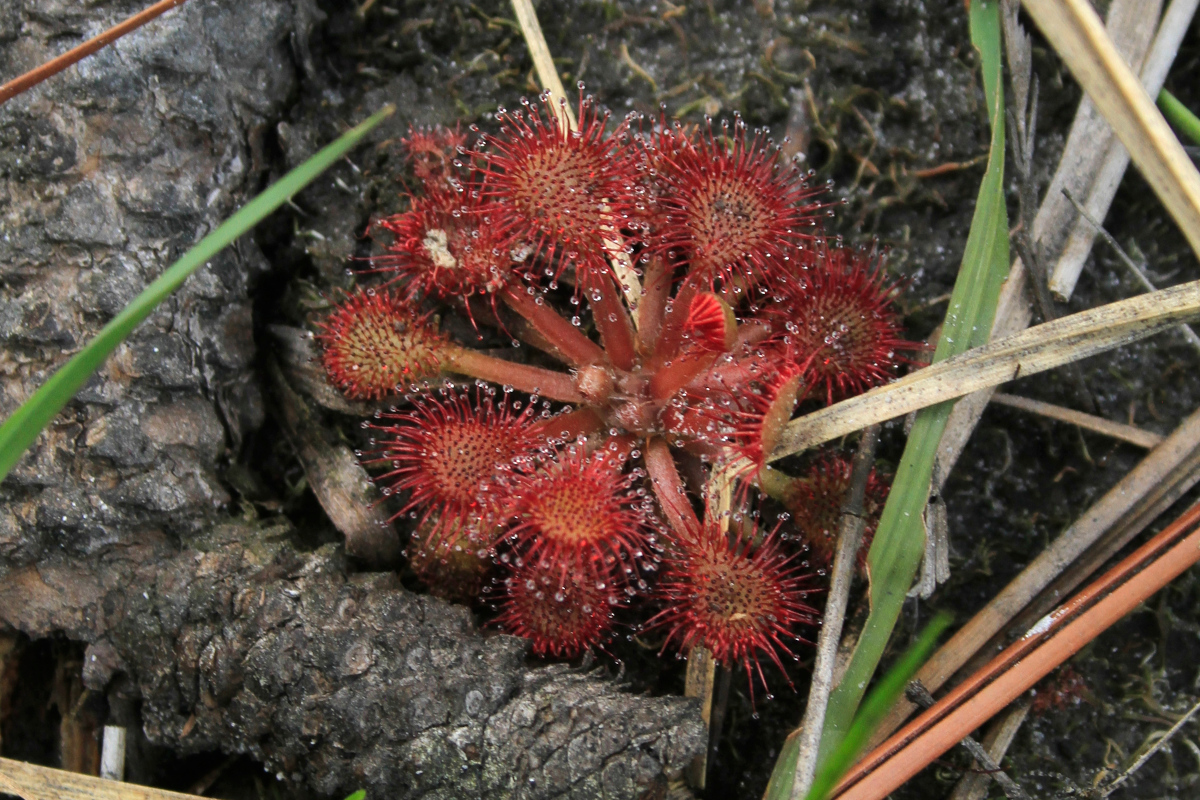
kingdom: Plantae
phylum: Tracheophyta
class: Magnoliopsida
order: Caryophyllales
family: Droseraceae
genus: Drosera
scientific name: Drosera capillaris
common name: Pink sundew
